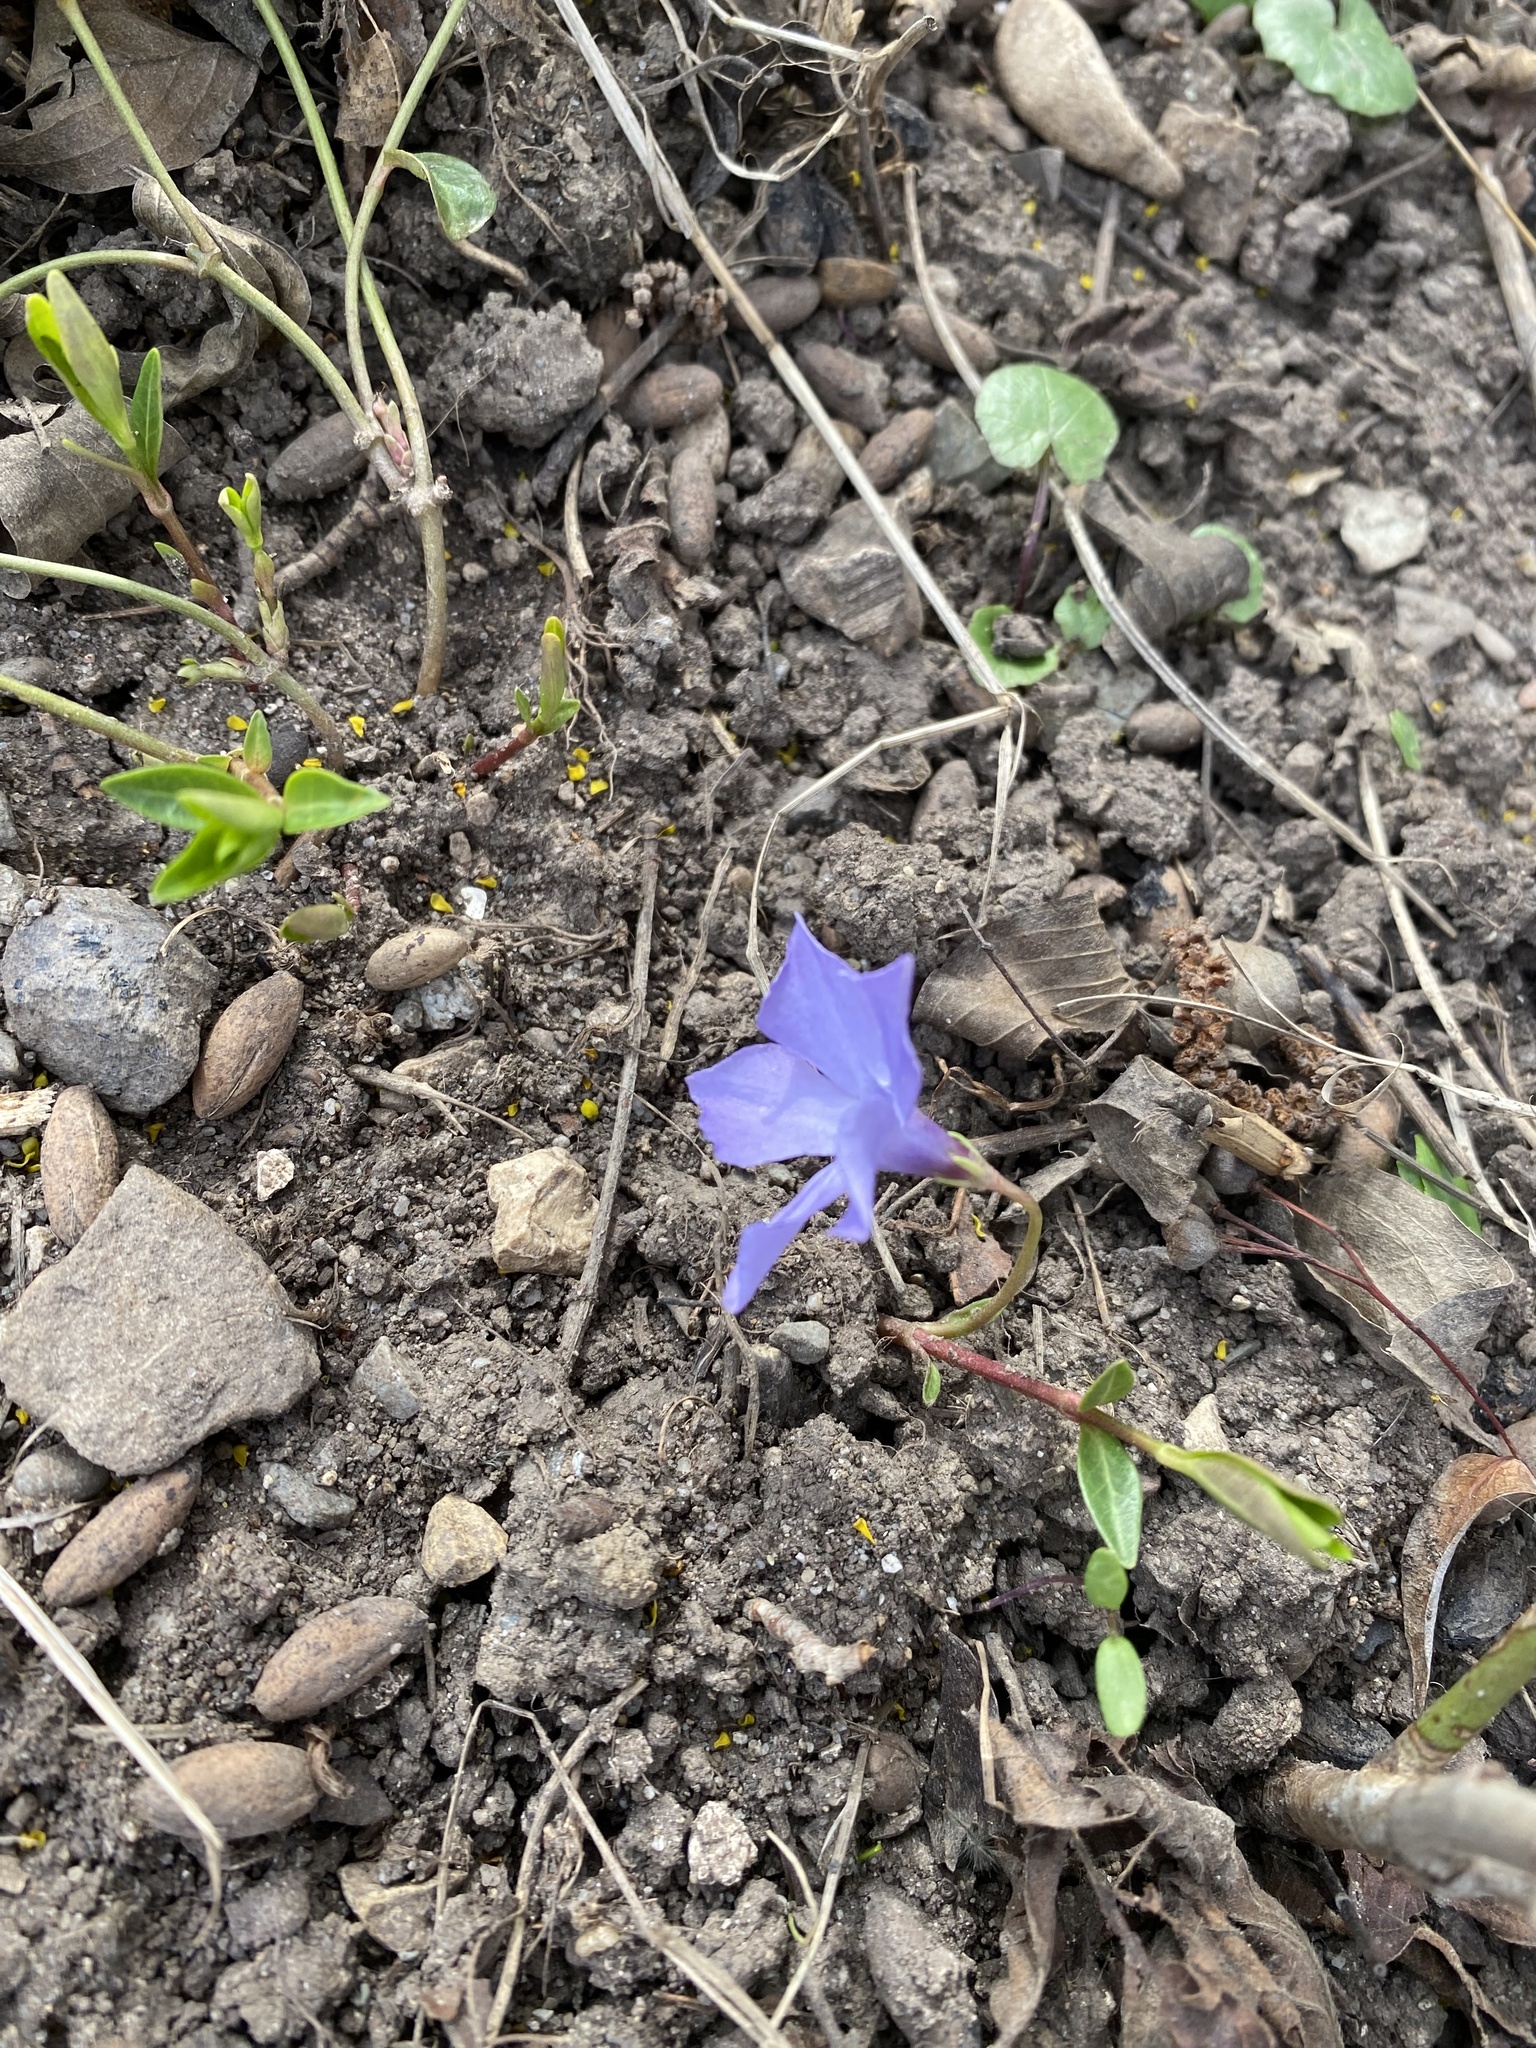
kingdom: Plantae
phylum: Tracheophyta
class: Magnoliopsida
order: Gentianales
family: Apocynaceae
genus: Vinca
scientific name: Vinca minor
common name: Lesser periwinkle
